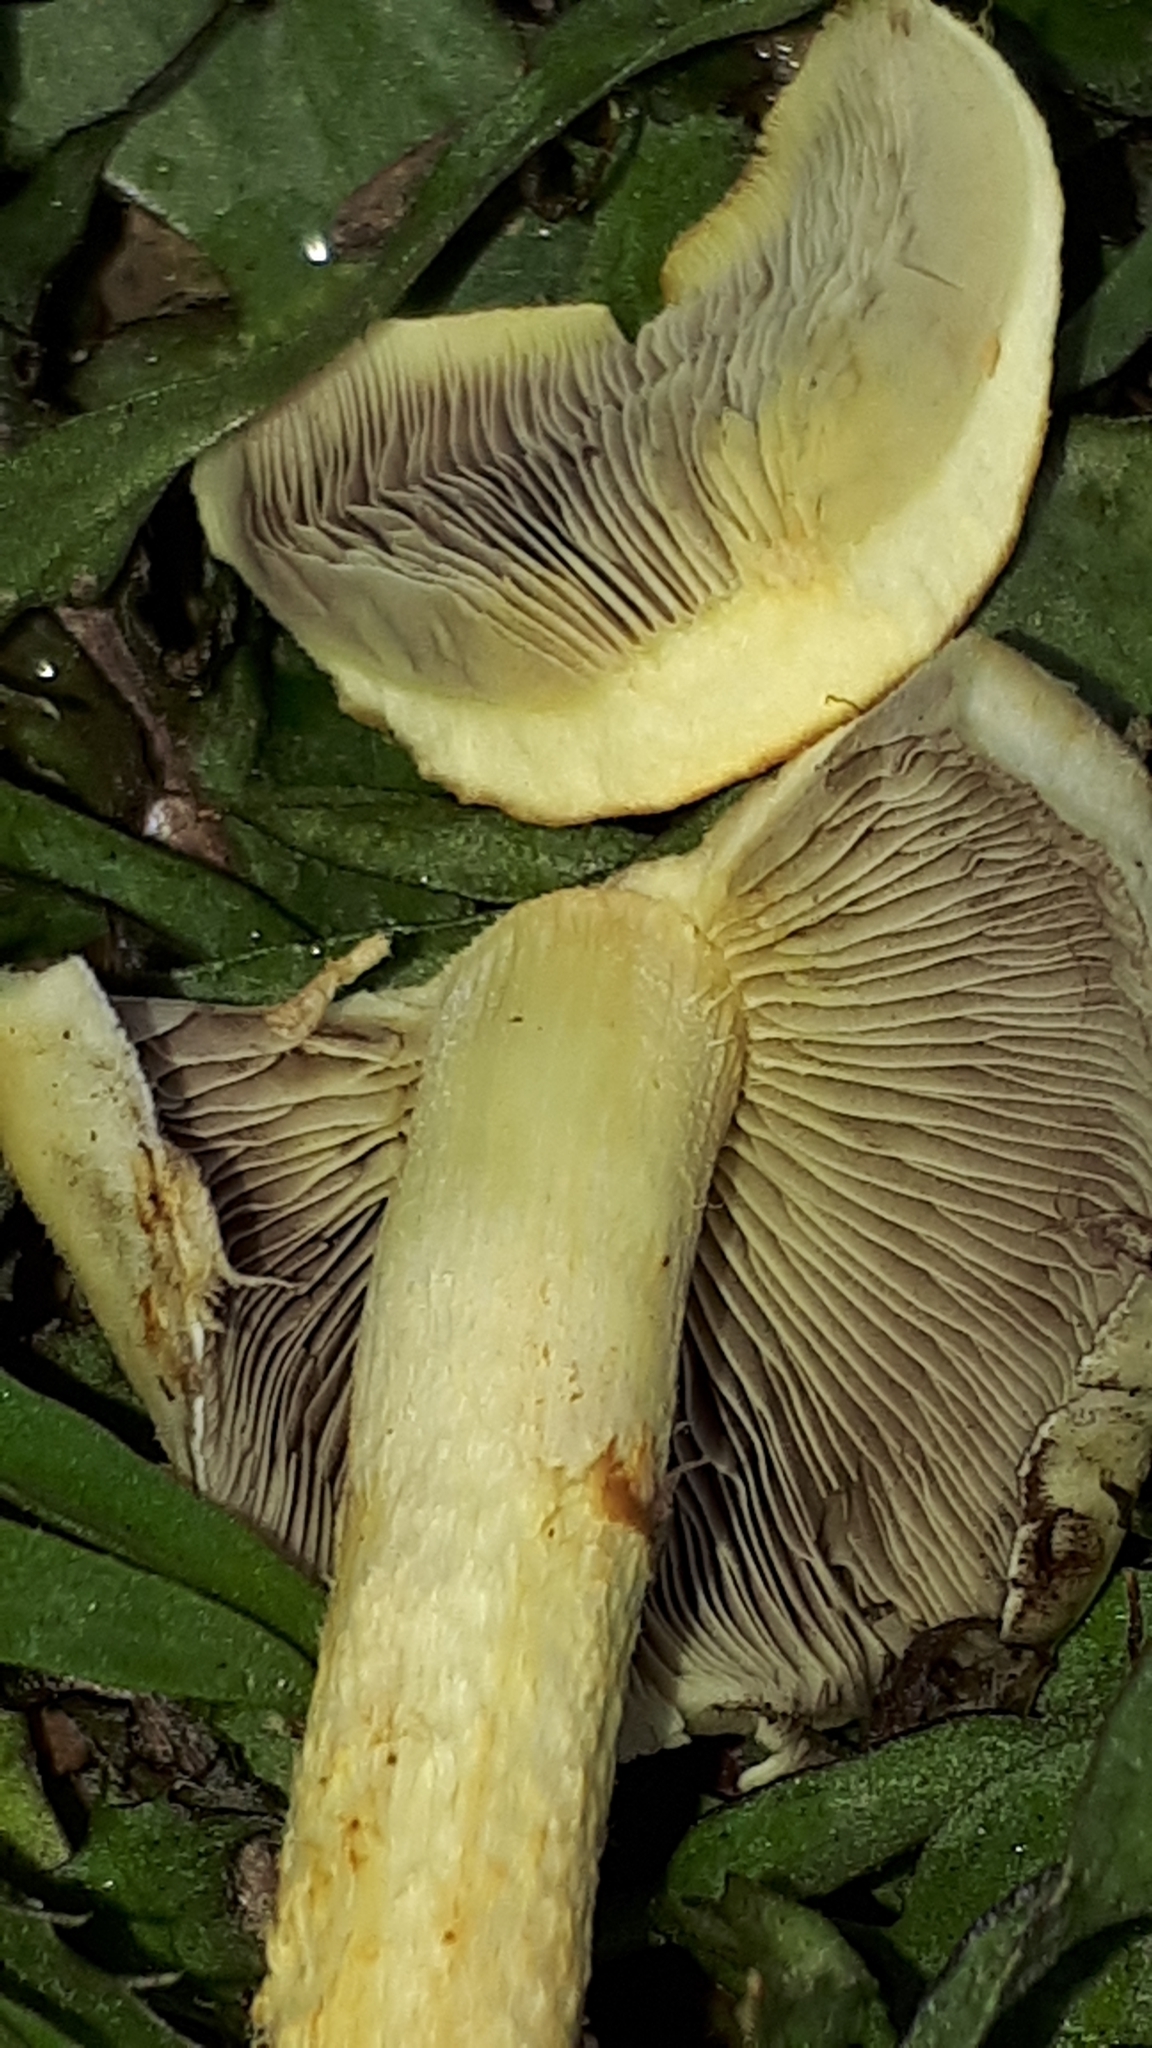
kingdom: Fungi
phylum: Basidiomycota
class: Agaricomycetes
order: Agaricales
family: Strophariaceae
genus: Hypholoma
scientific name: Hypholoma fasciculare
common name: Sulphur tuft
